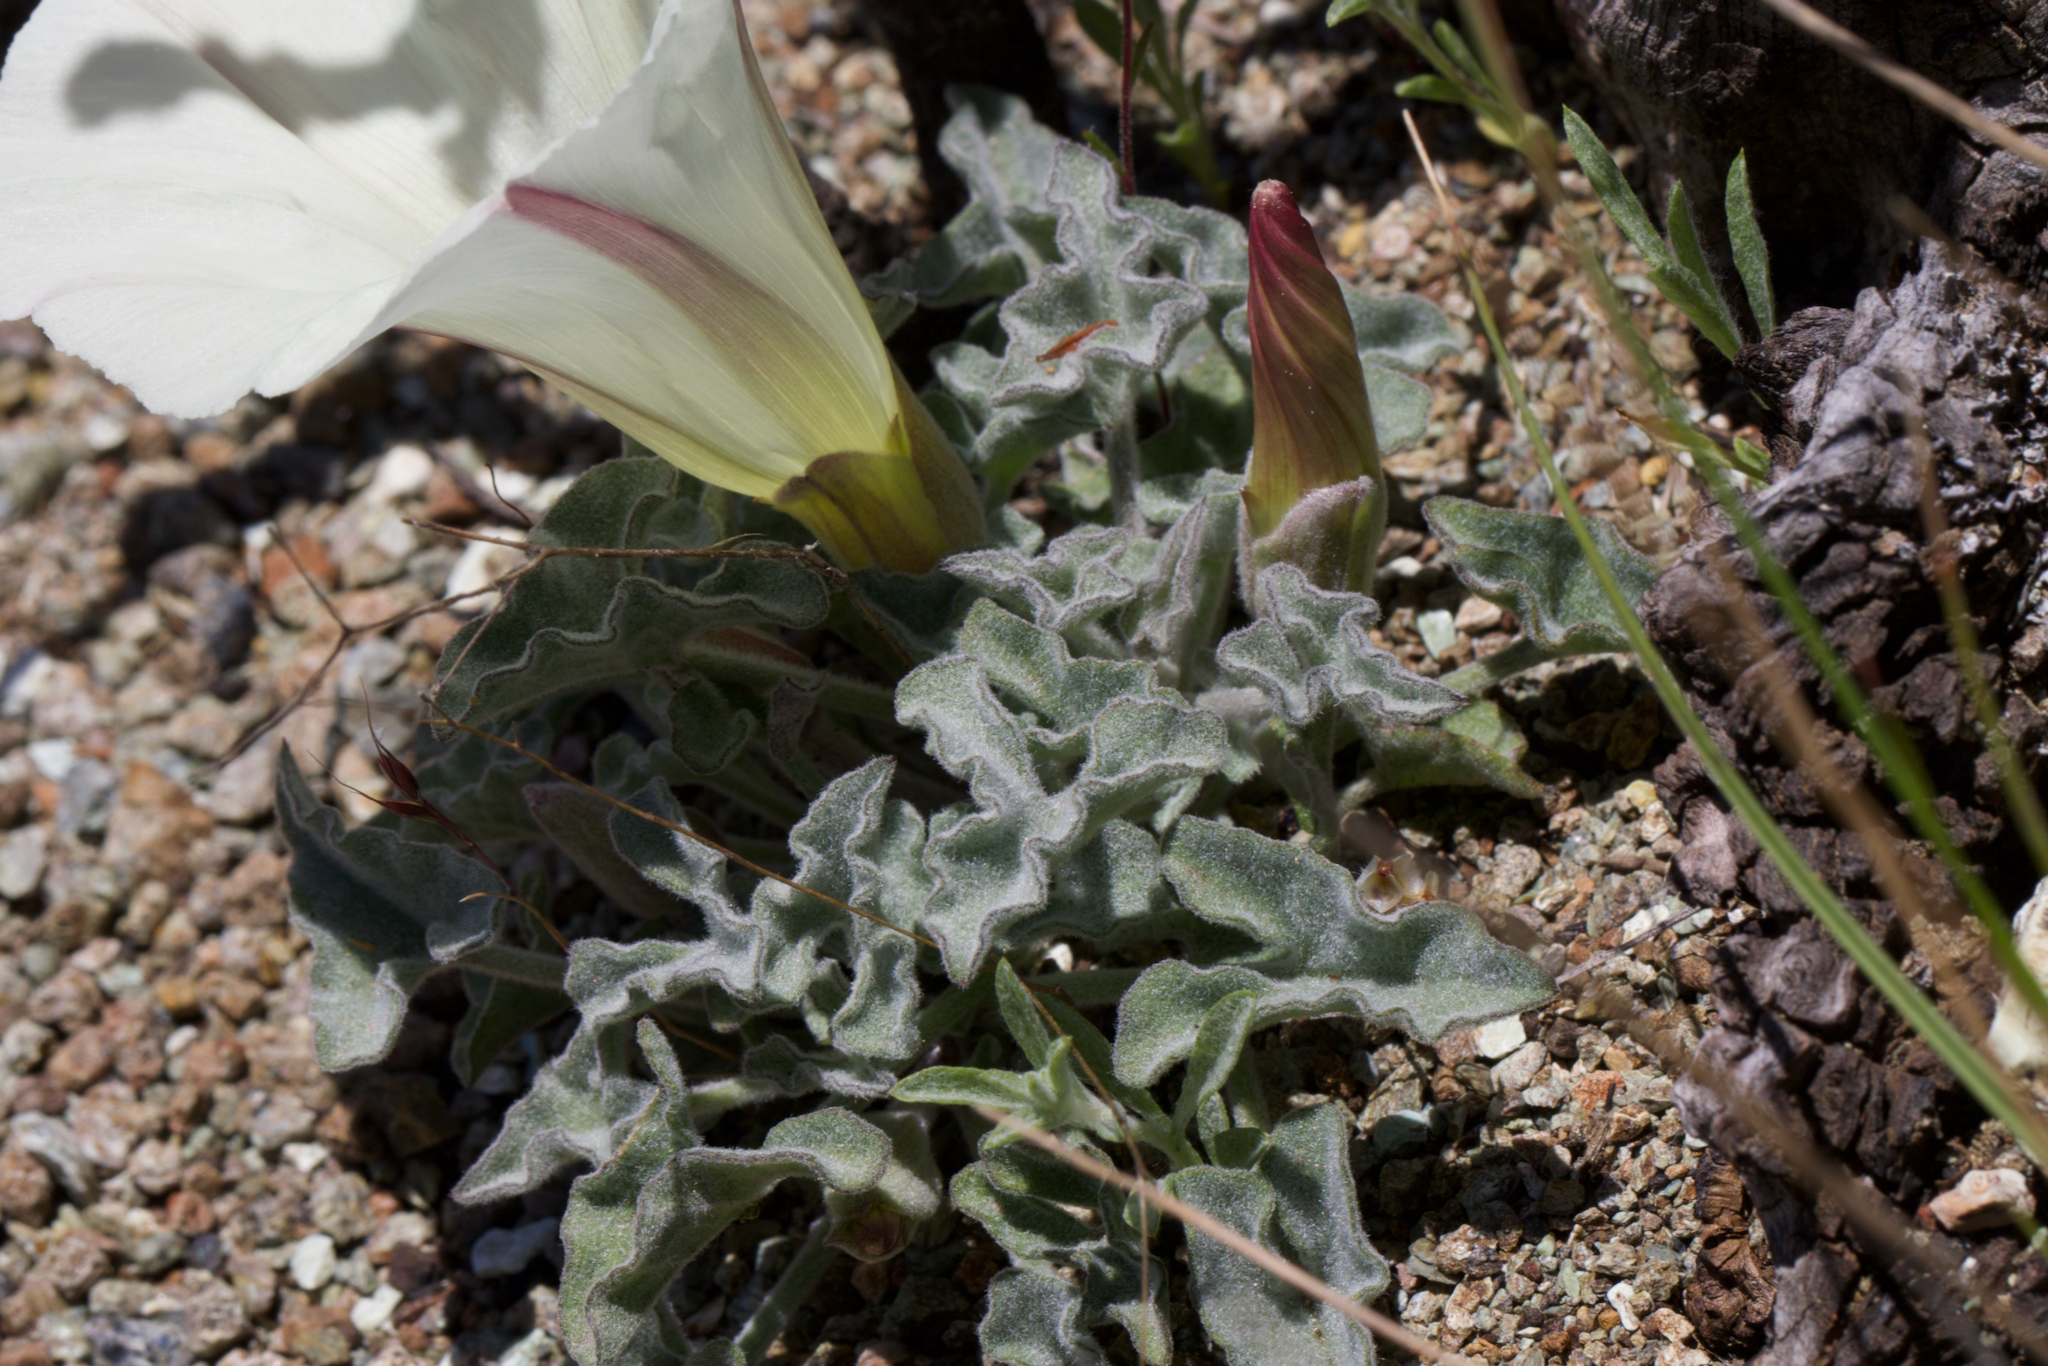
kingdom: Plantae
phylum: Tracheophyta
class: Magnoliopsida
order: Solanales
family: Convolvulaceae
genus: Calystegia
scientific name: Calystegia collina
